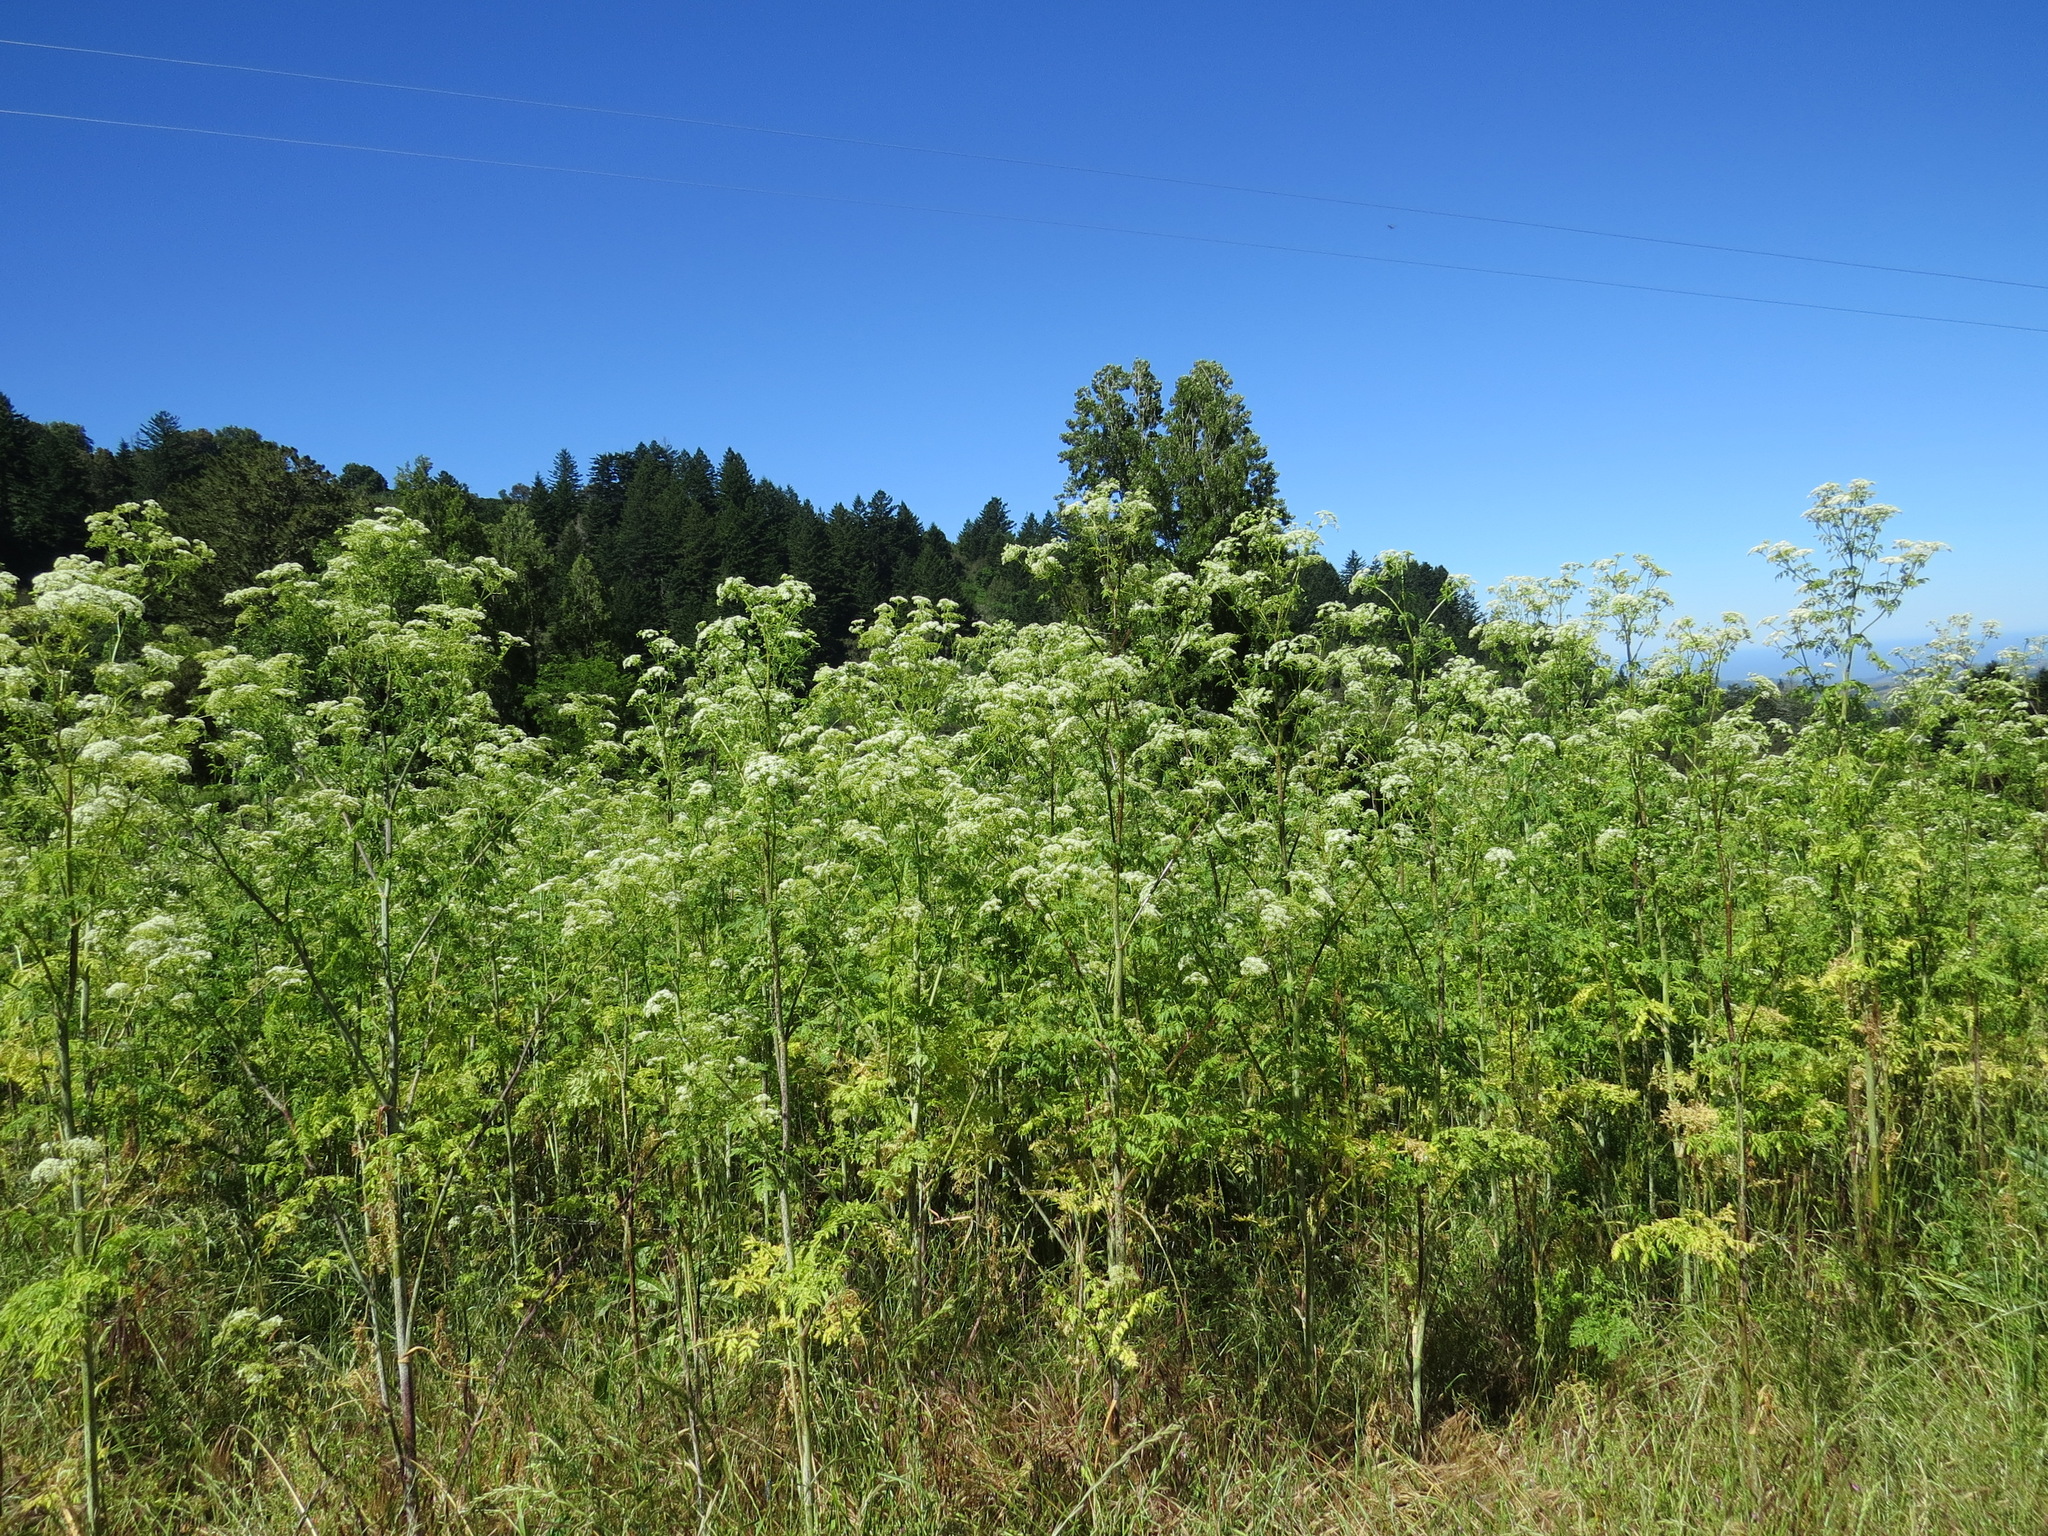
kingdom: Plantae
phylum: Tracheophyta
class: Magnoliopsida
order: Apiales
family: Apiaceae
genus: Conium
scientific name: Conium maculatum
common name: Hemlock
